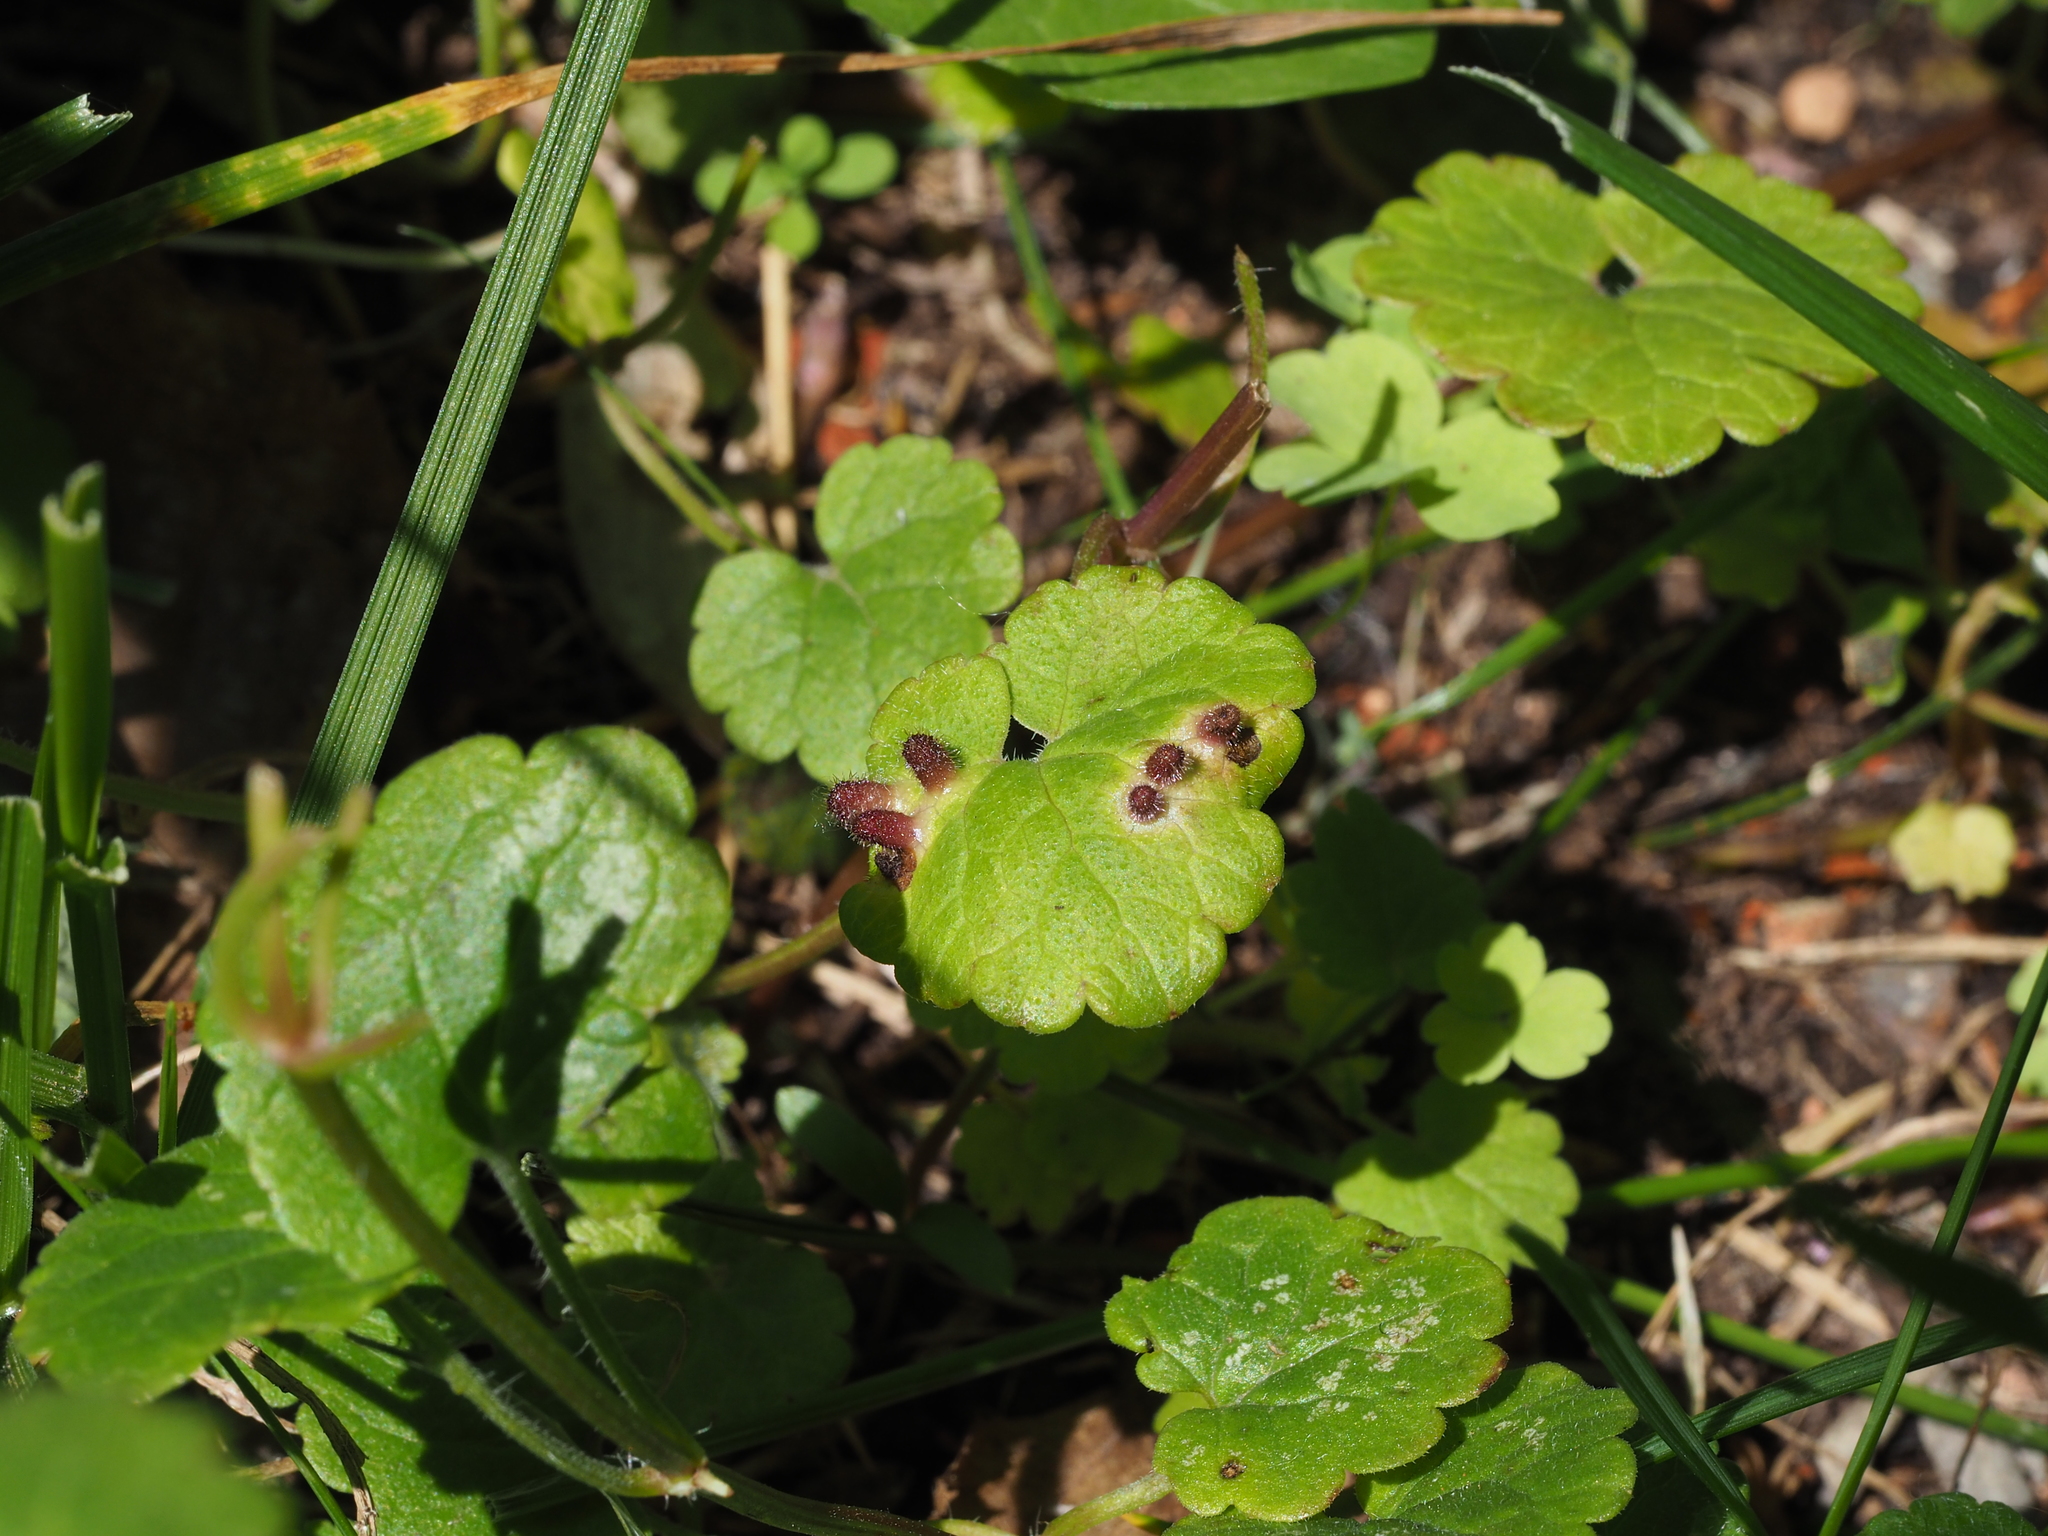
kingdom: Animalia
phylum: Arthropoda
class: Insecta
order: Diptera
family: Cecidomyiidae
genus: Rondaniola
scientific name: Rondaniola bursaria
